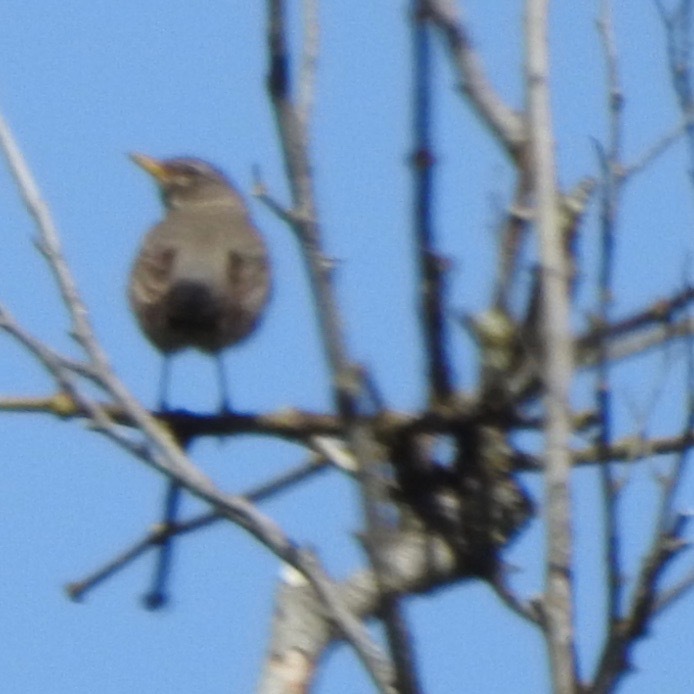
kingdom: Animalia
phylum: Chordata
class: Aves
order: Passeriformes
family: Turdidae
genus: Turdus
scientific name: Turdus migratorius
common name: American robin
